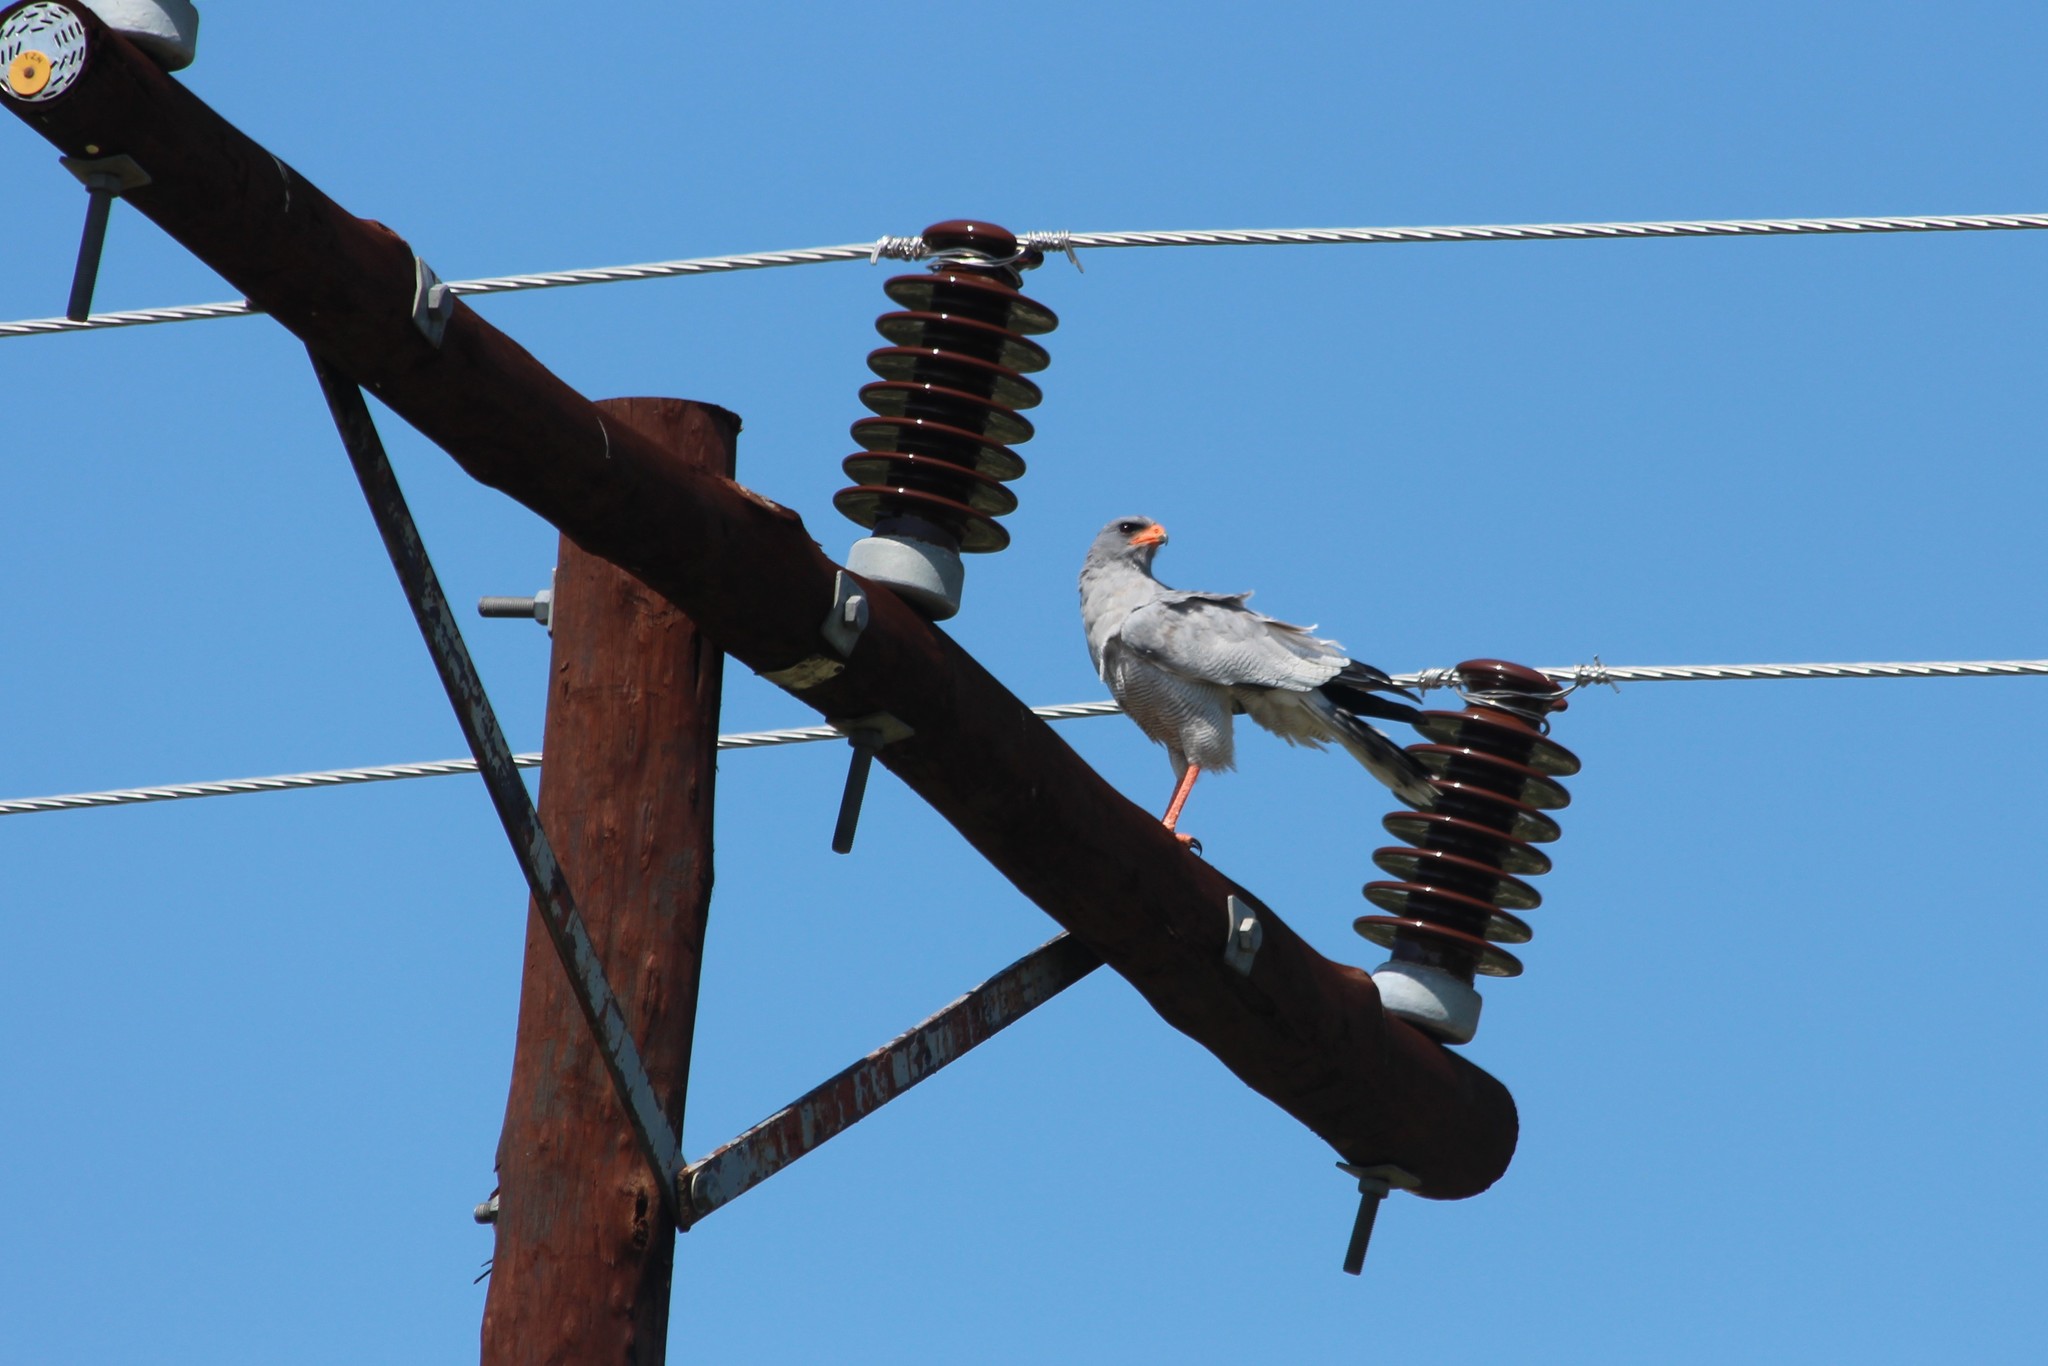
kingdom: Animalia
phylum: Chordata
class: Aves
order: Accipitriformes
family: Accipitridae
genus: Melierax
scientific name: Melierax canorus
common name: Pale chanting-goshawk
